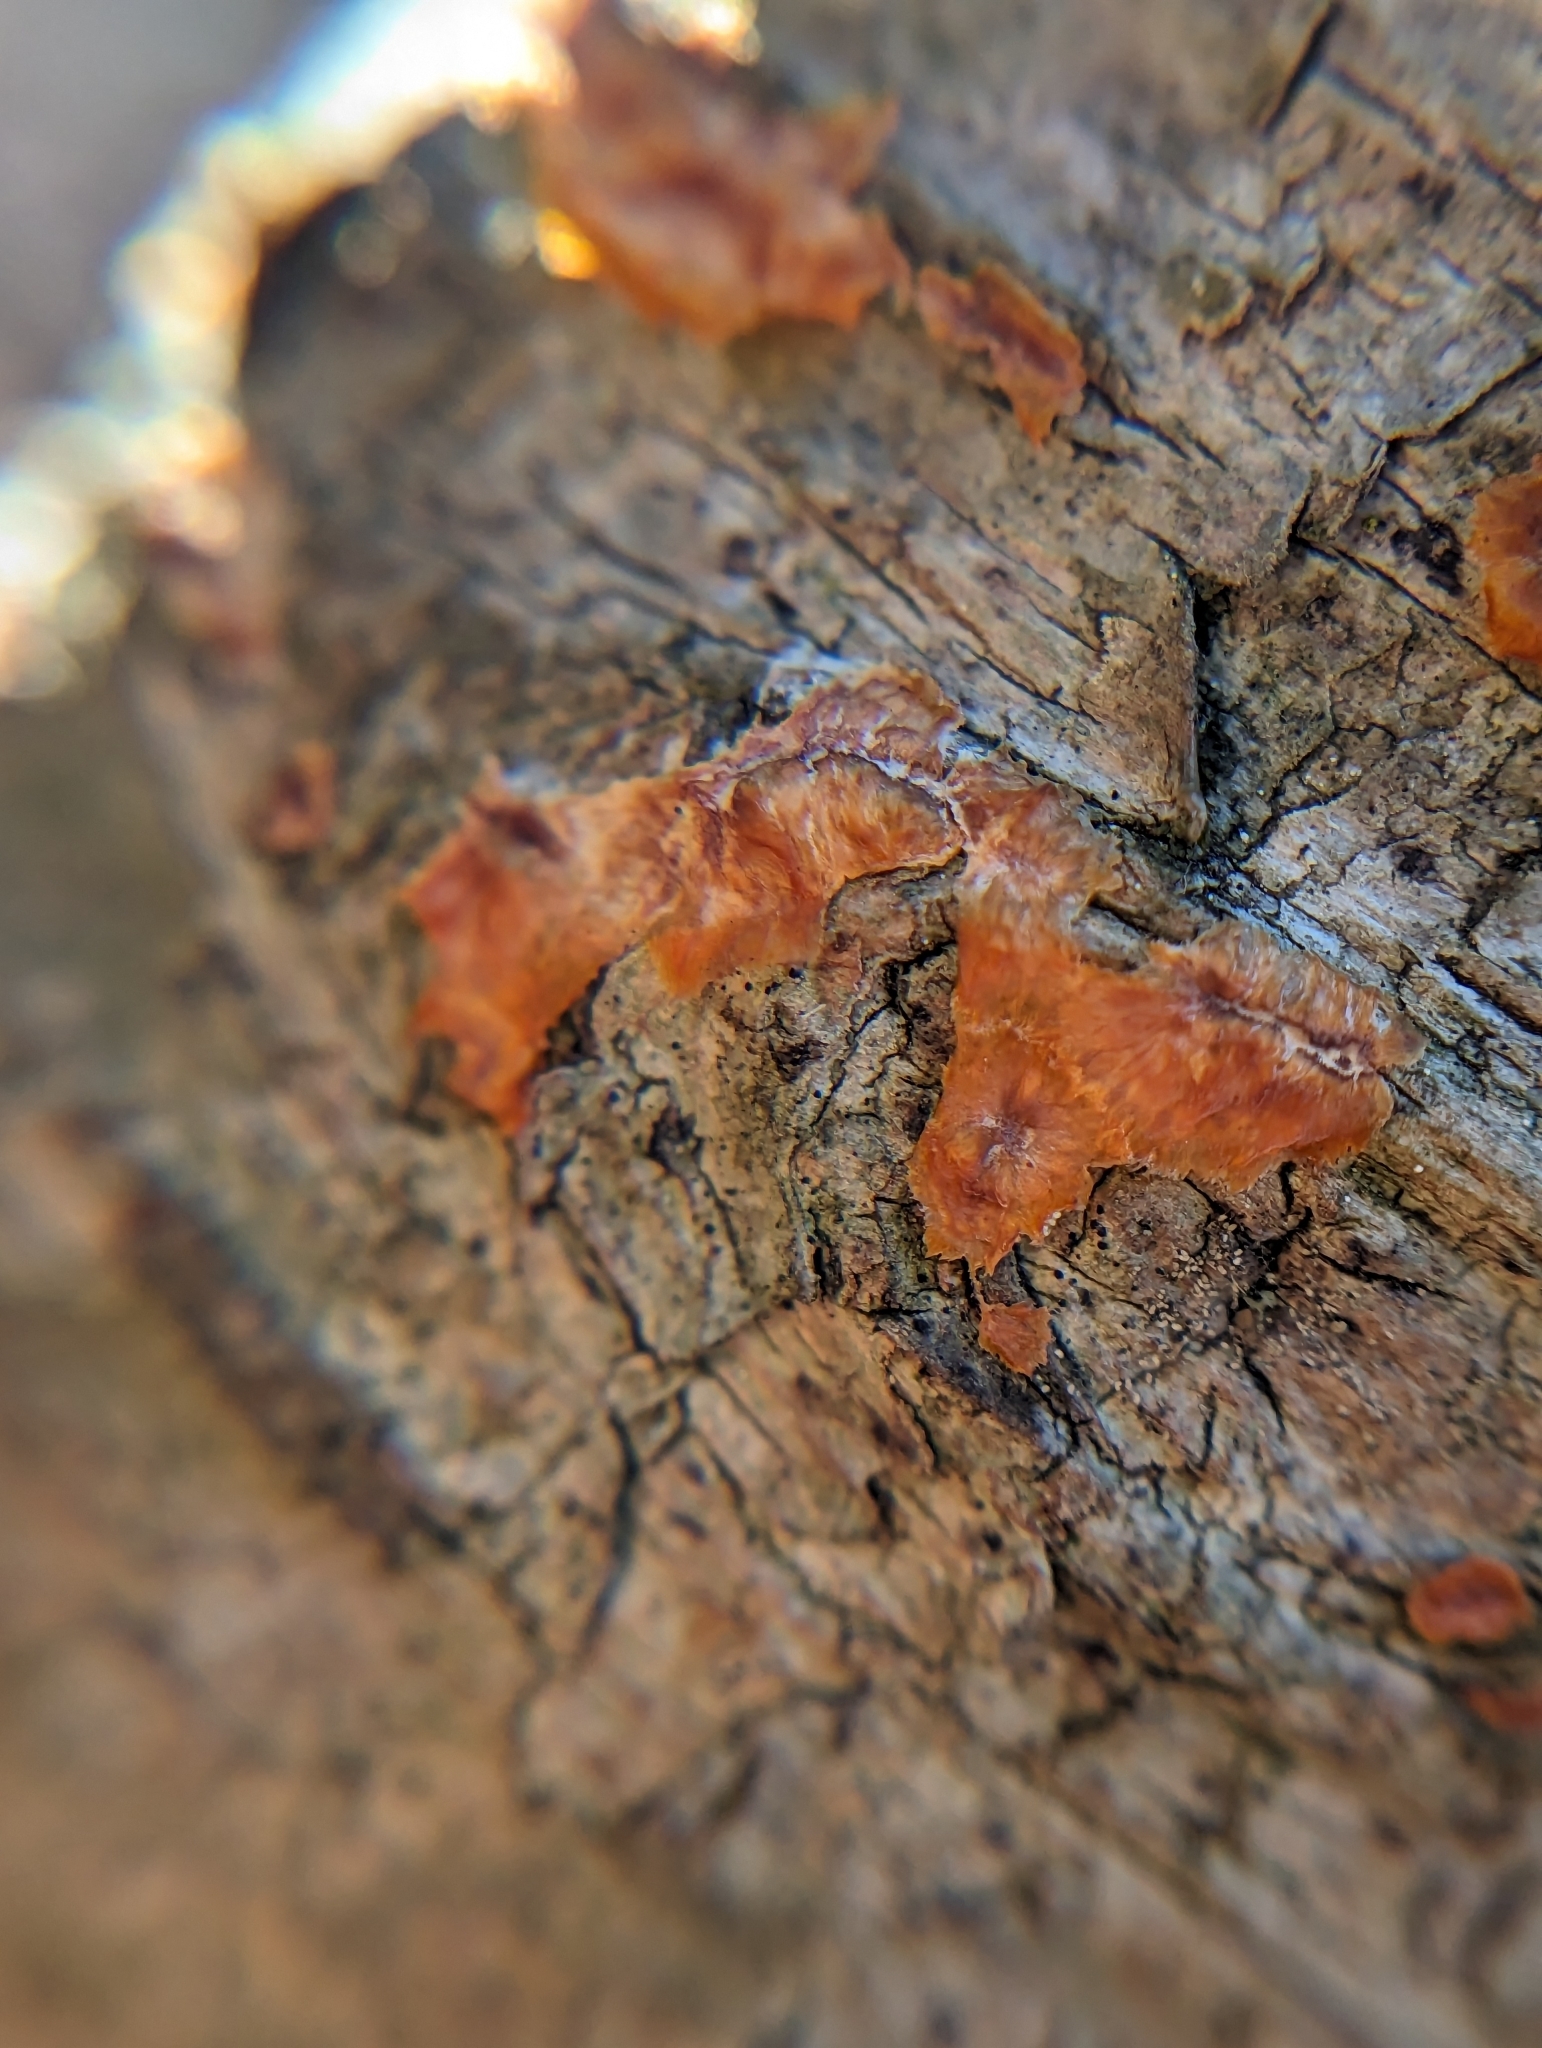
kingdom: Fungi
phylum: Basidiomycota
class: Agaricomycetes
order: Polyporales
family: Meruliaceae
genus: Phlebia
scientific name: Phlebia radiata
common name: Wrinkled crust
